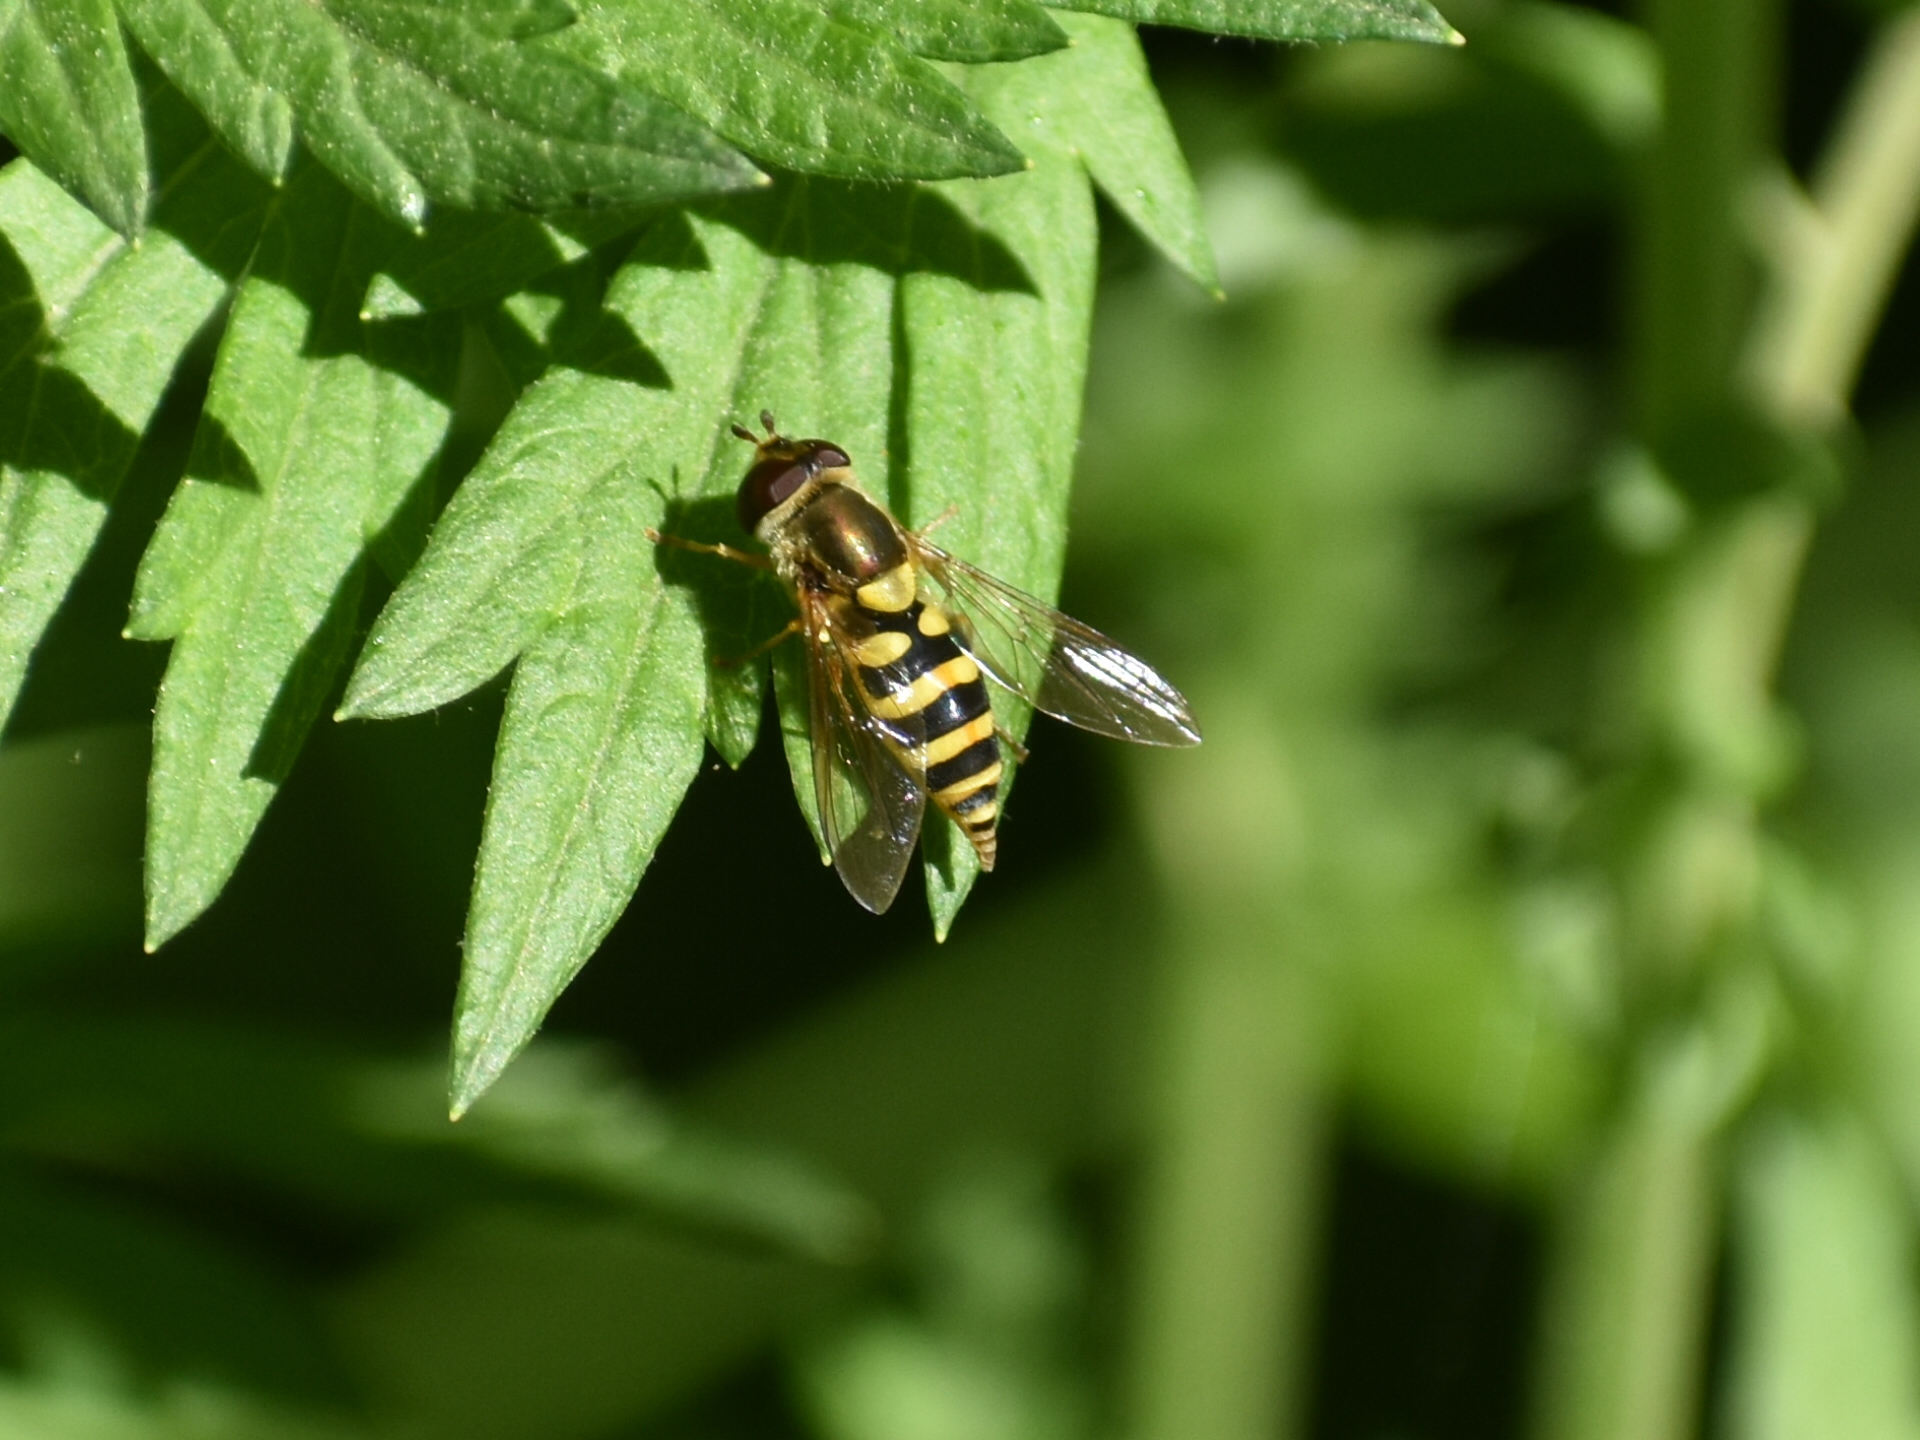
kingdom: Animalia
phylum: Arthropoda
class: Insecta
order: Diptera
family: Syrphidae
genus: Syrphus
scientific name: Syrphus
